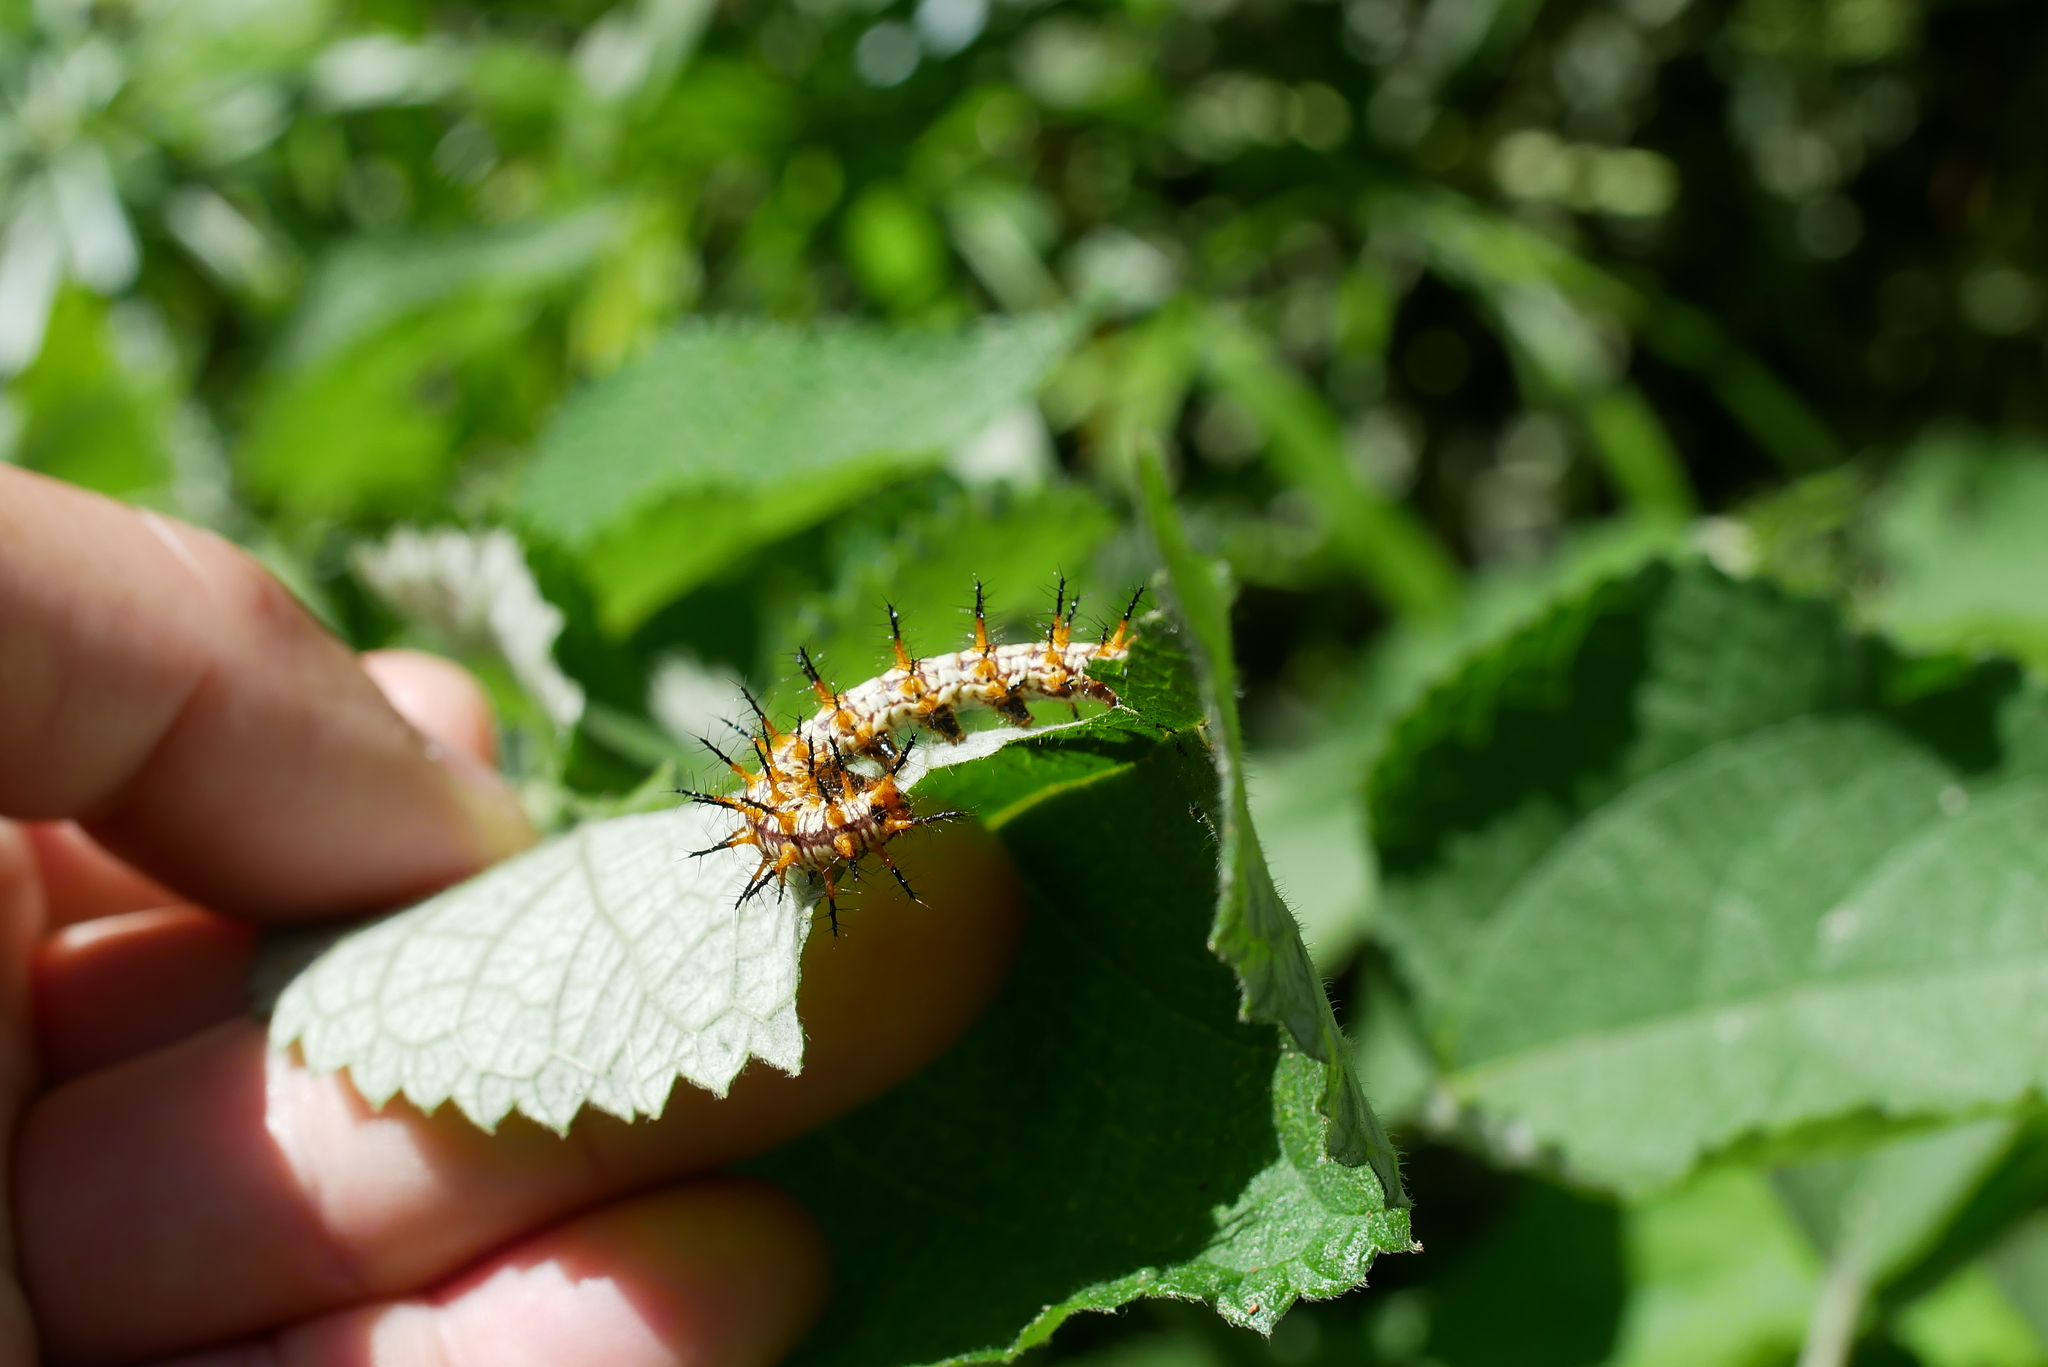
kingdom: Animalia
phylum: Arthropoda
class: Insecta
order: Lepidoptera
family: Nymphalidae
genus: Acraea
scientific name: Acraea Telchinia issoria
